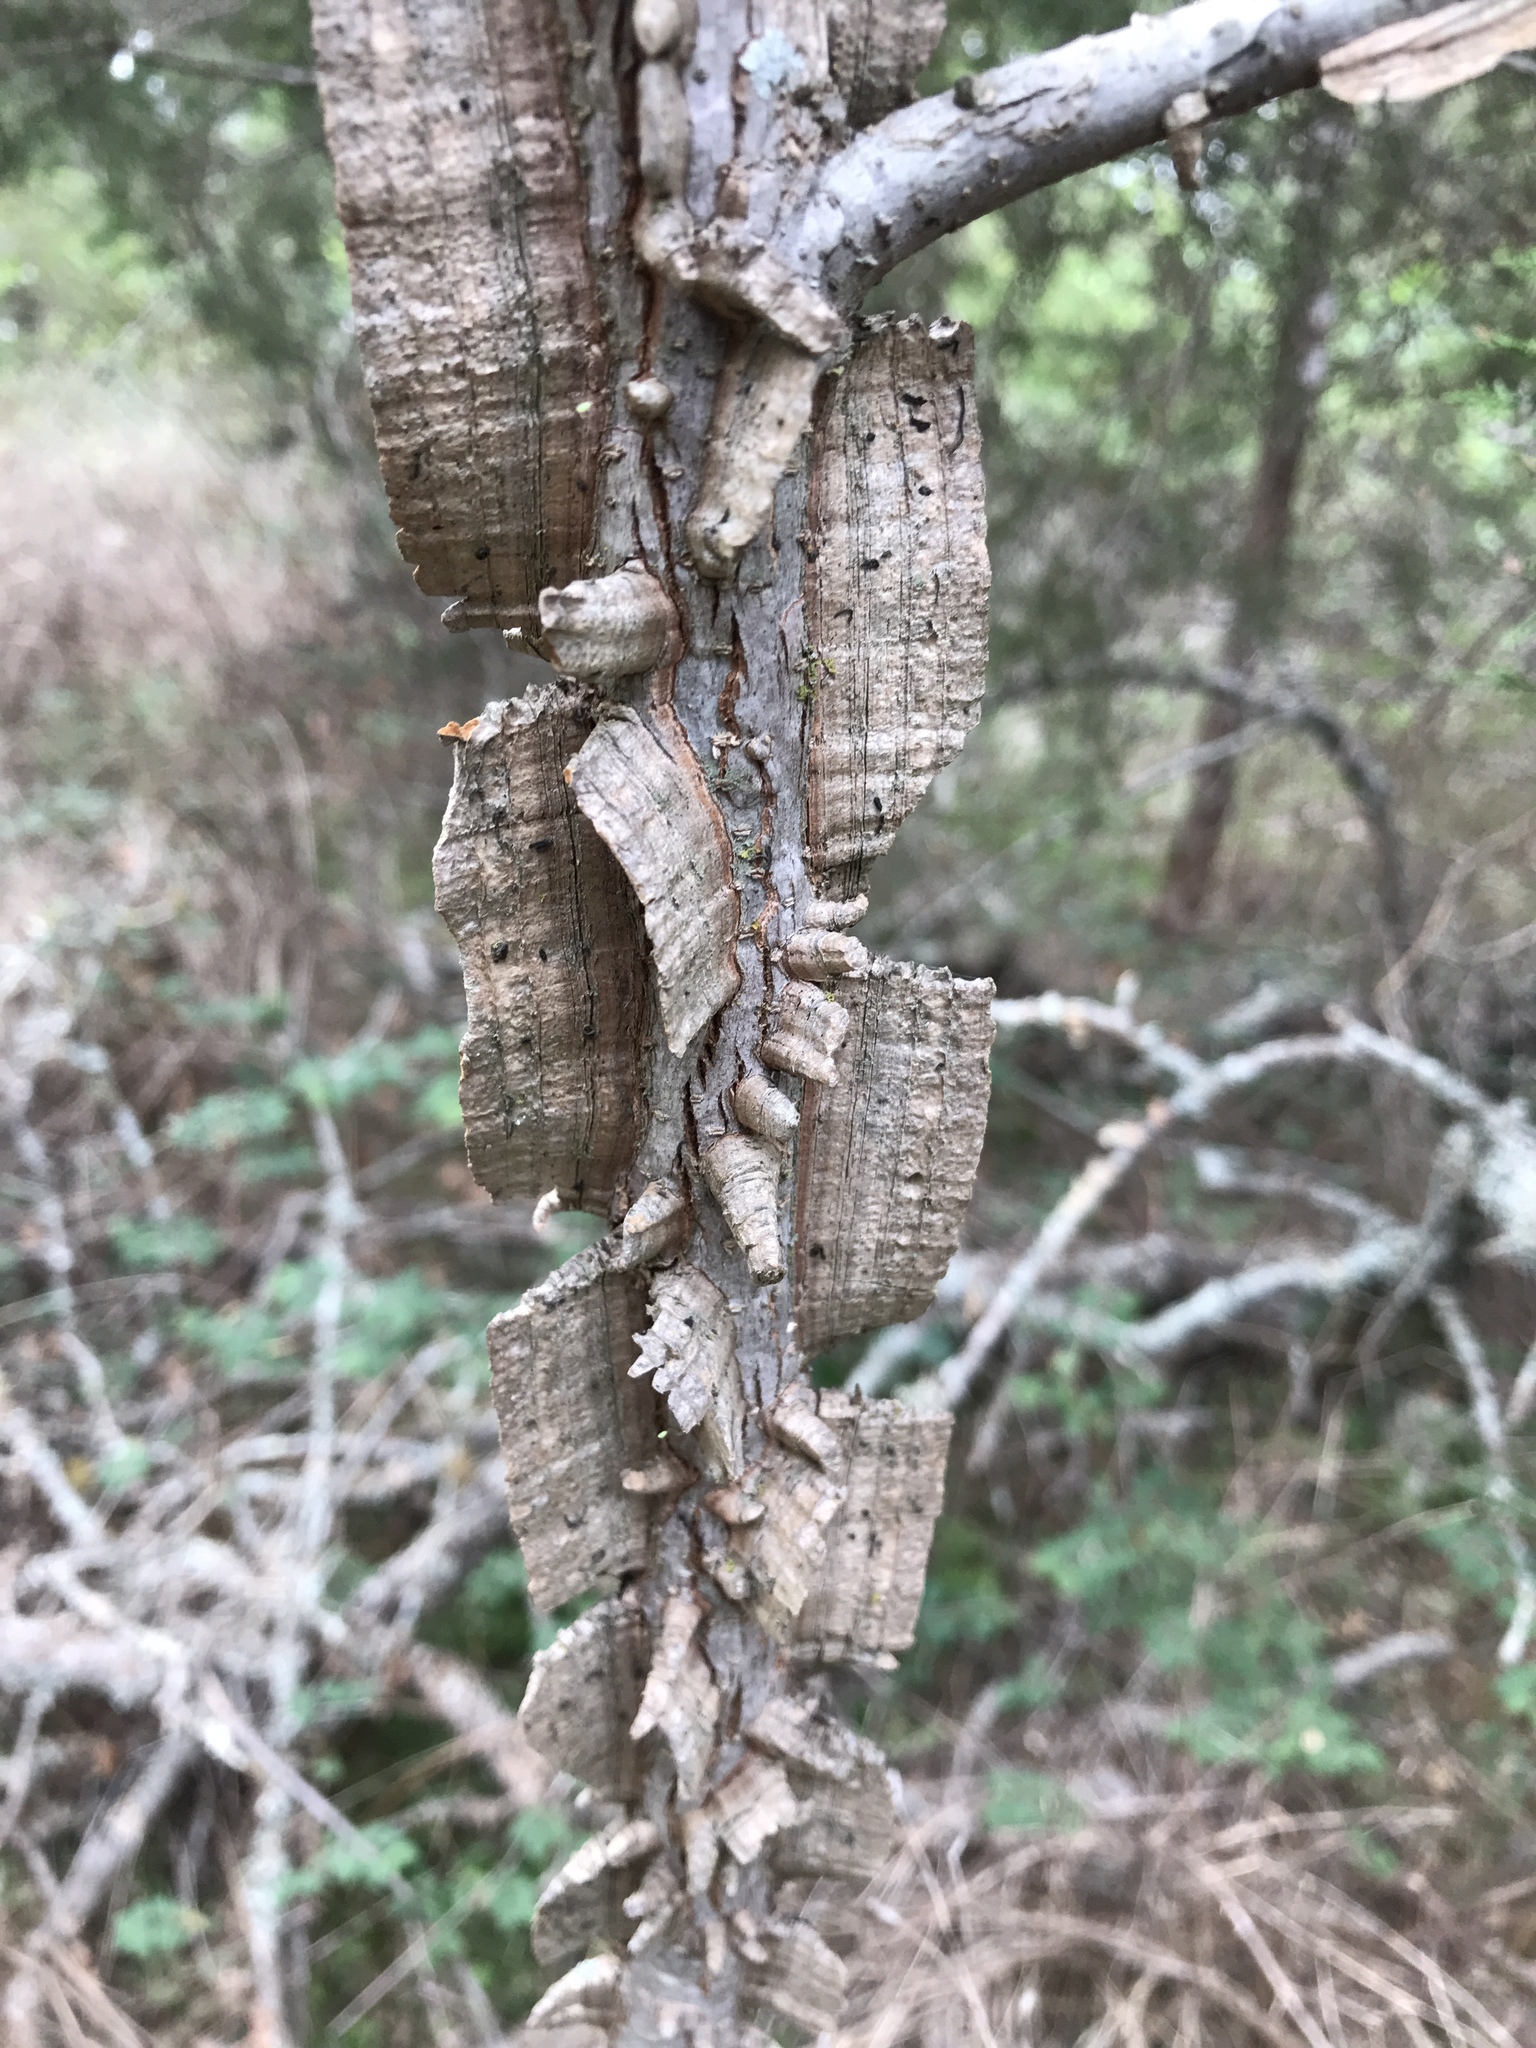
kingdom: Plantae
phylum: Tracheophyta
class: Magnoliopsida
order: Rosales
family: Ulmaceae
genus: Ulmus
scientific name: Ulmus crassifolia
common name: Basket elm
